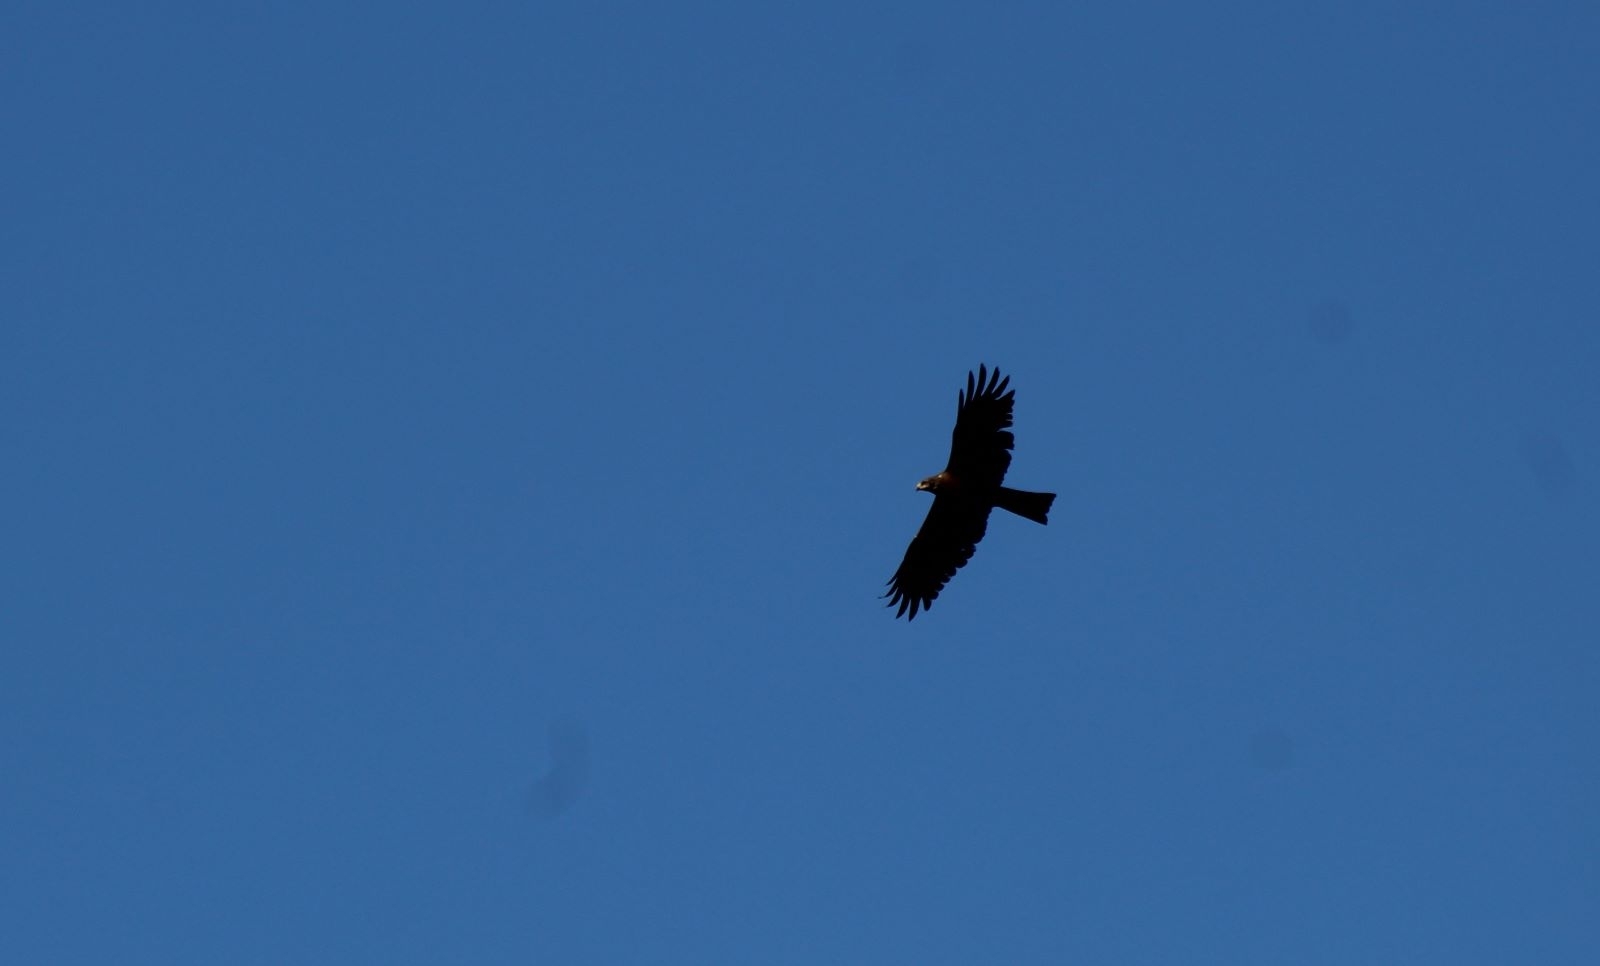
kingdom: Animalia
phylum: Chordata
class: Aves
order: Accipitriformes
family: Accipitridae
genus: Milvus
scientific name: Milvus migrans
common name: Black kite
